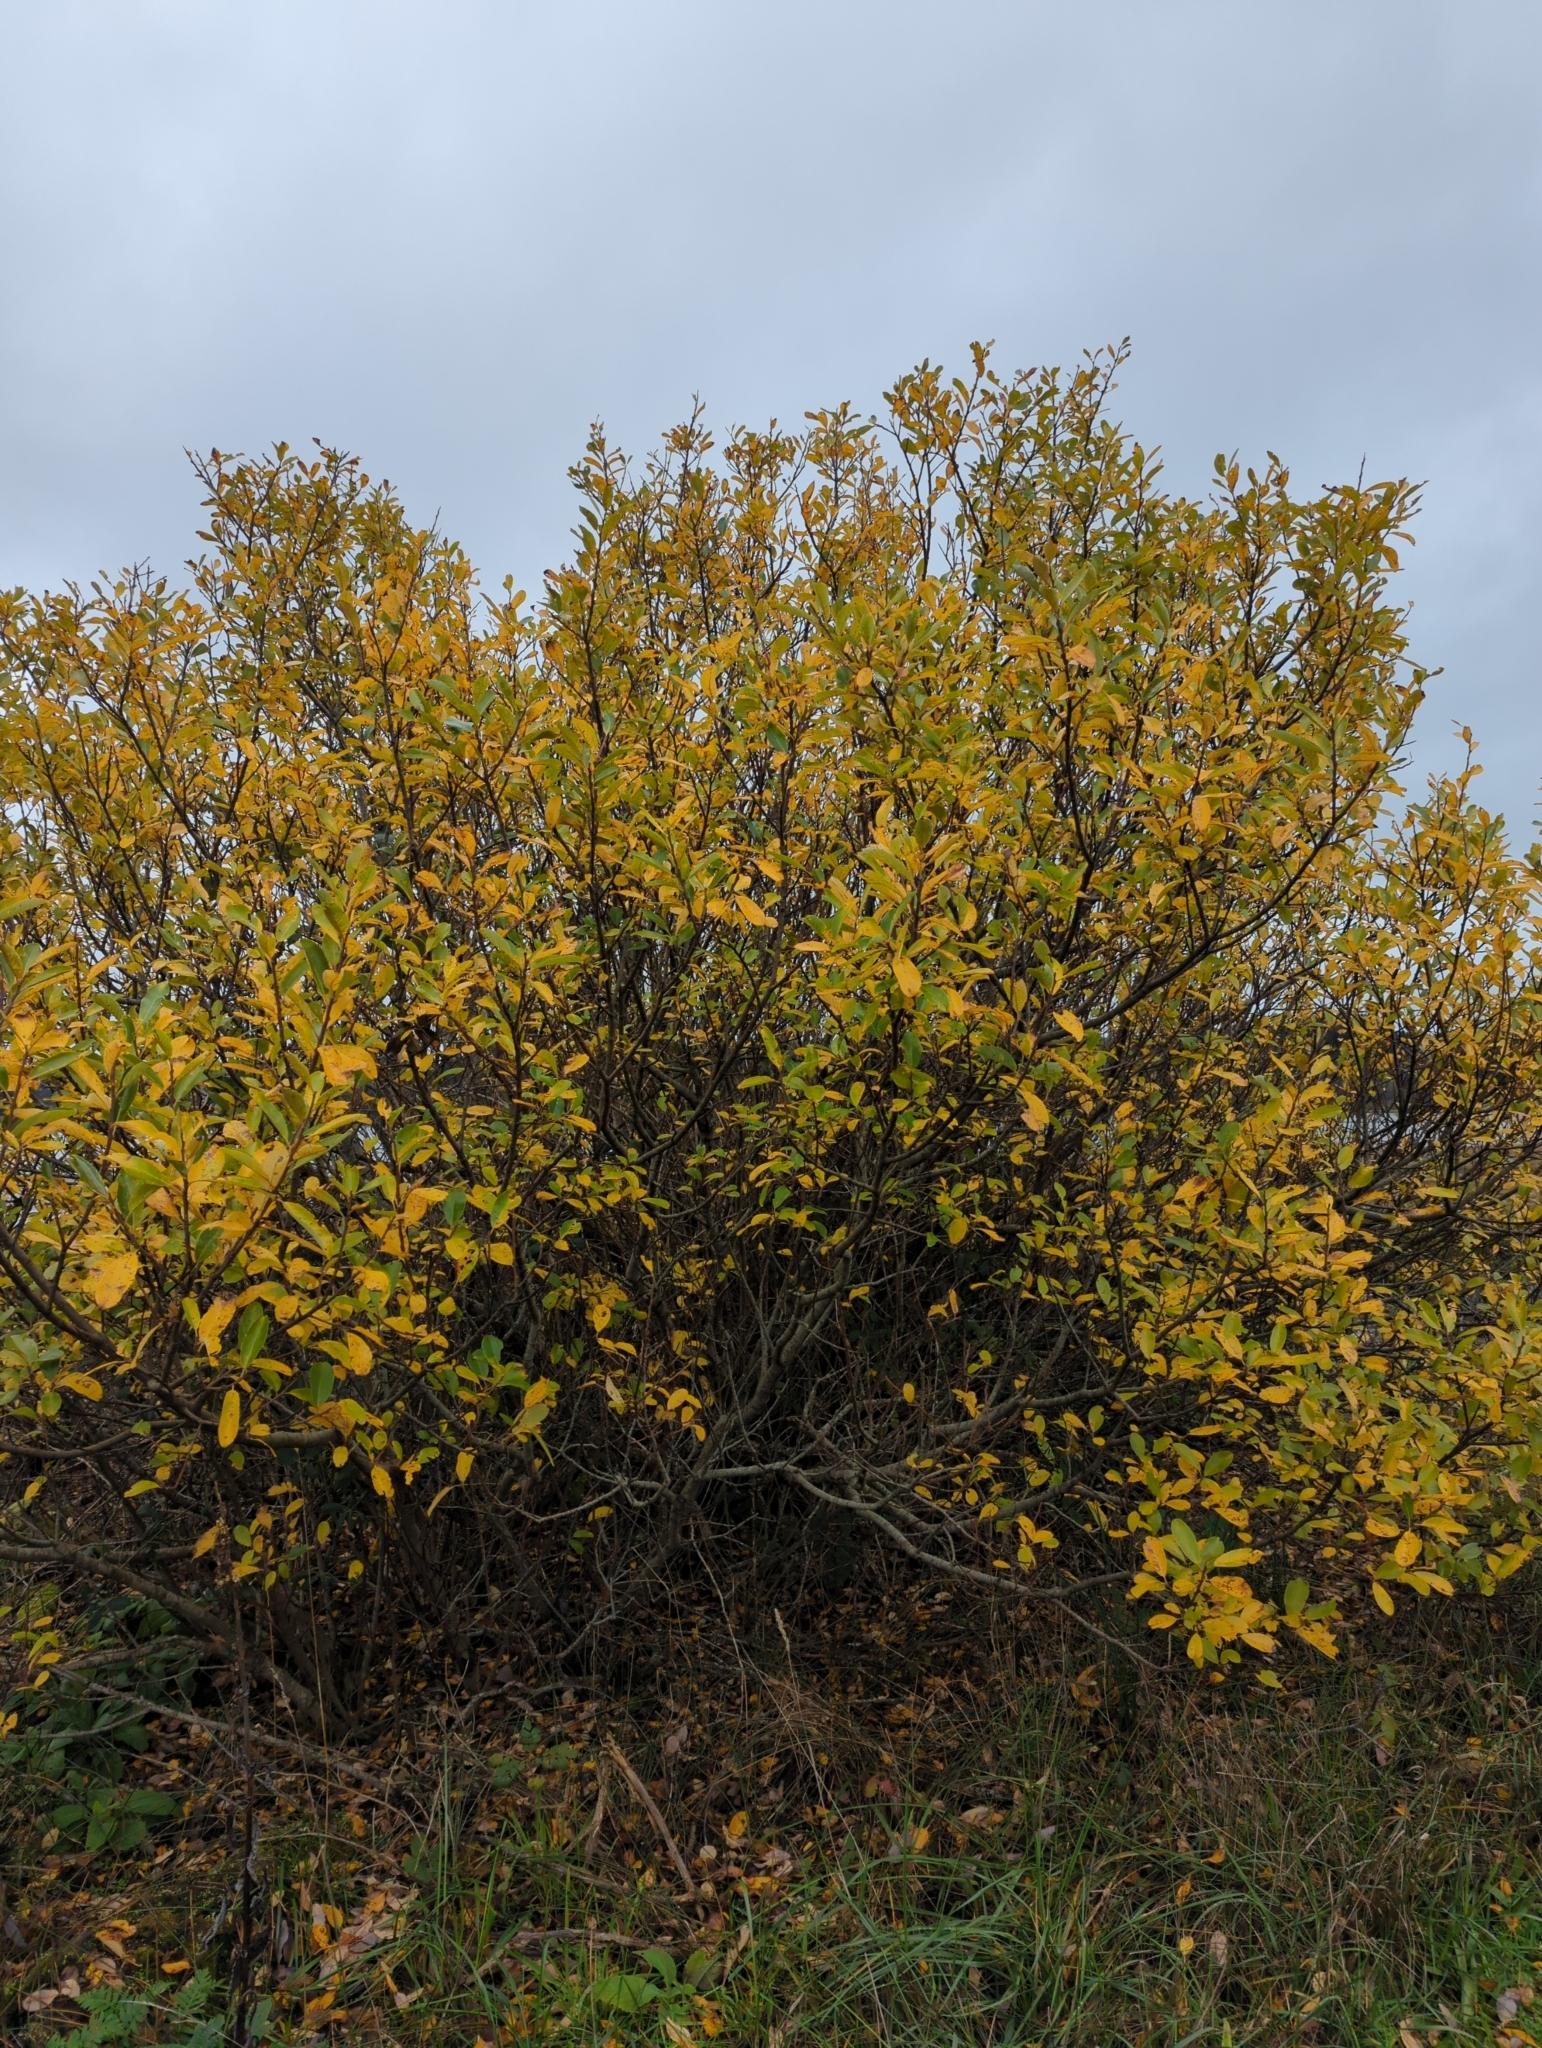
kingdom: Plantae
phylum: Tracheophyta
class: Magnoliopsida
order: Malpighiales
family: Salicaceae
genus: Salix
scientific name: Salix hookeriana
